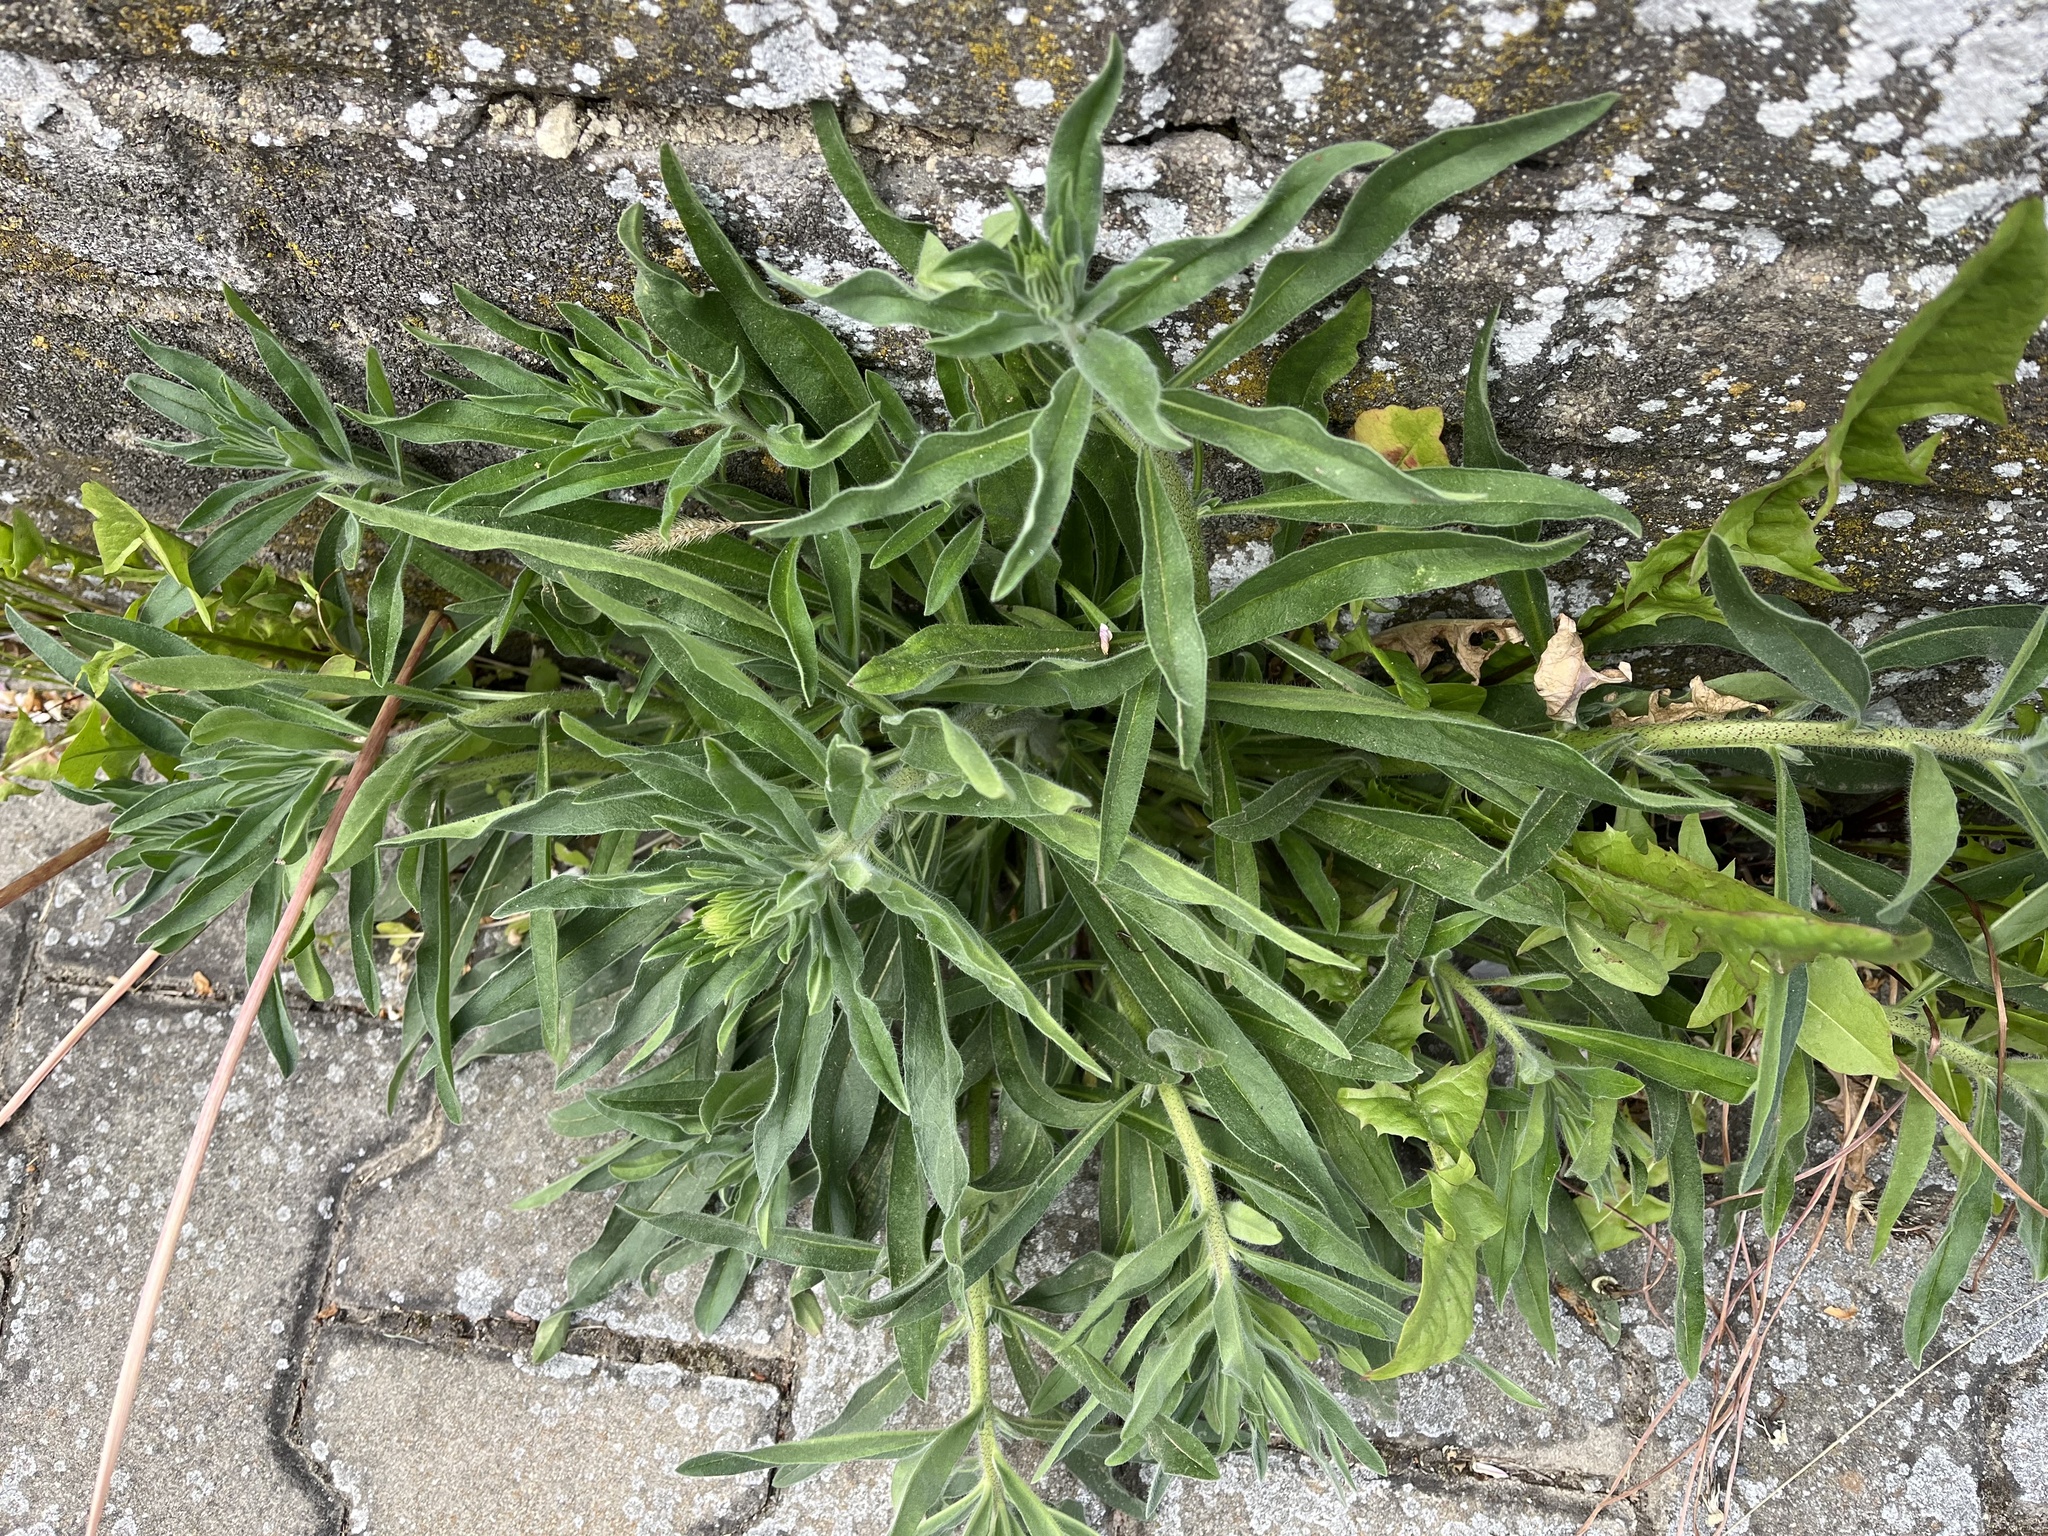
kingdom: Plantae
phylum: Tracheophyta
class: Magnoliopsida
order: Boraginales
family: Boraginaceae
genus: Echium
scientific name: Echium vulgare
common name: Common viper's bugloss
